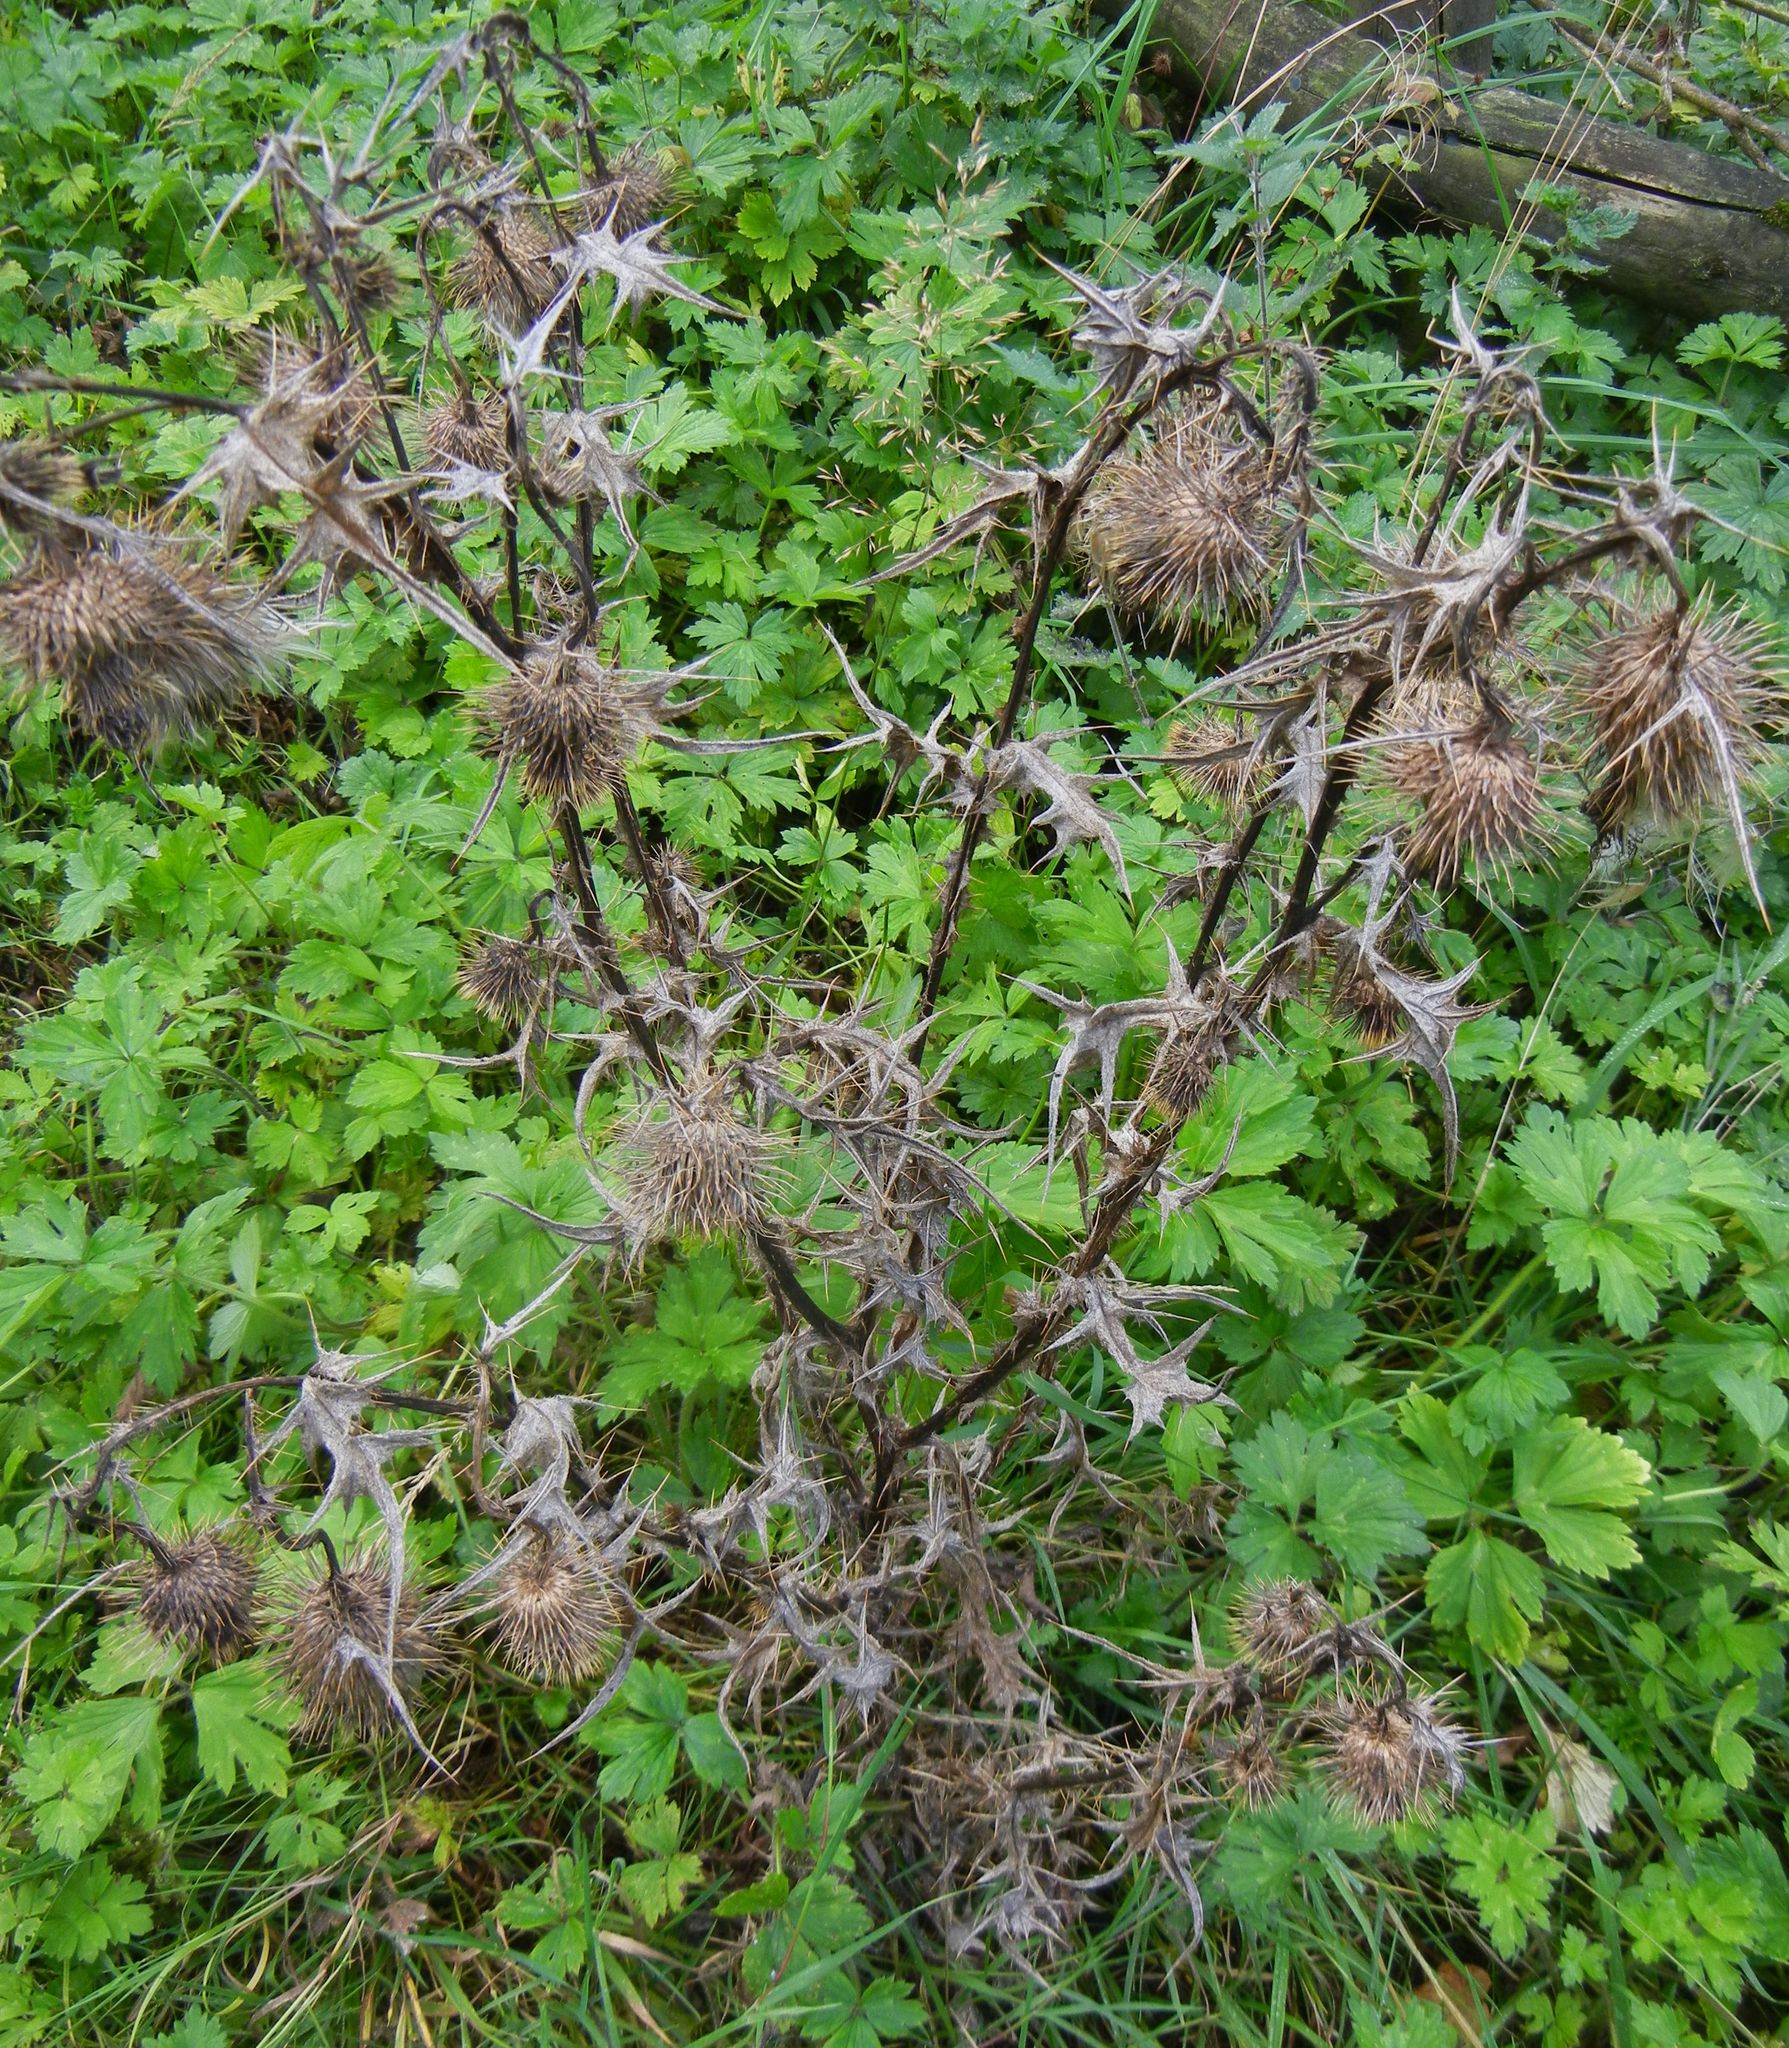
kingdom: Plantae
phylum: Tracheophyta
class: Magnoliopsida
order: Asterales
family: Asteraceae
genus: Cirsium
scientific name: Cirsium vulgare
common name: Bull thistle
